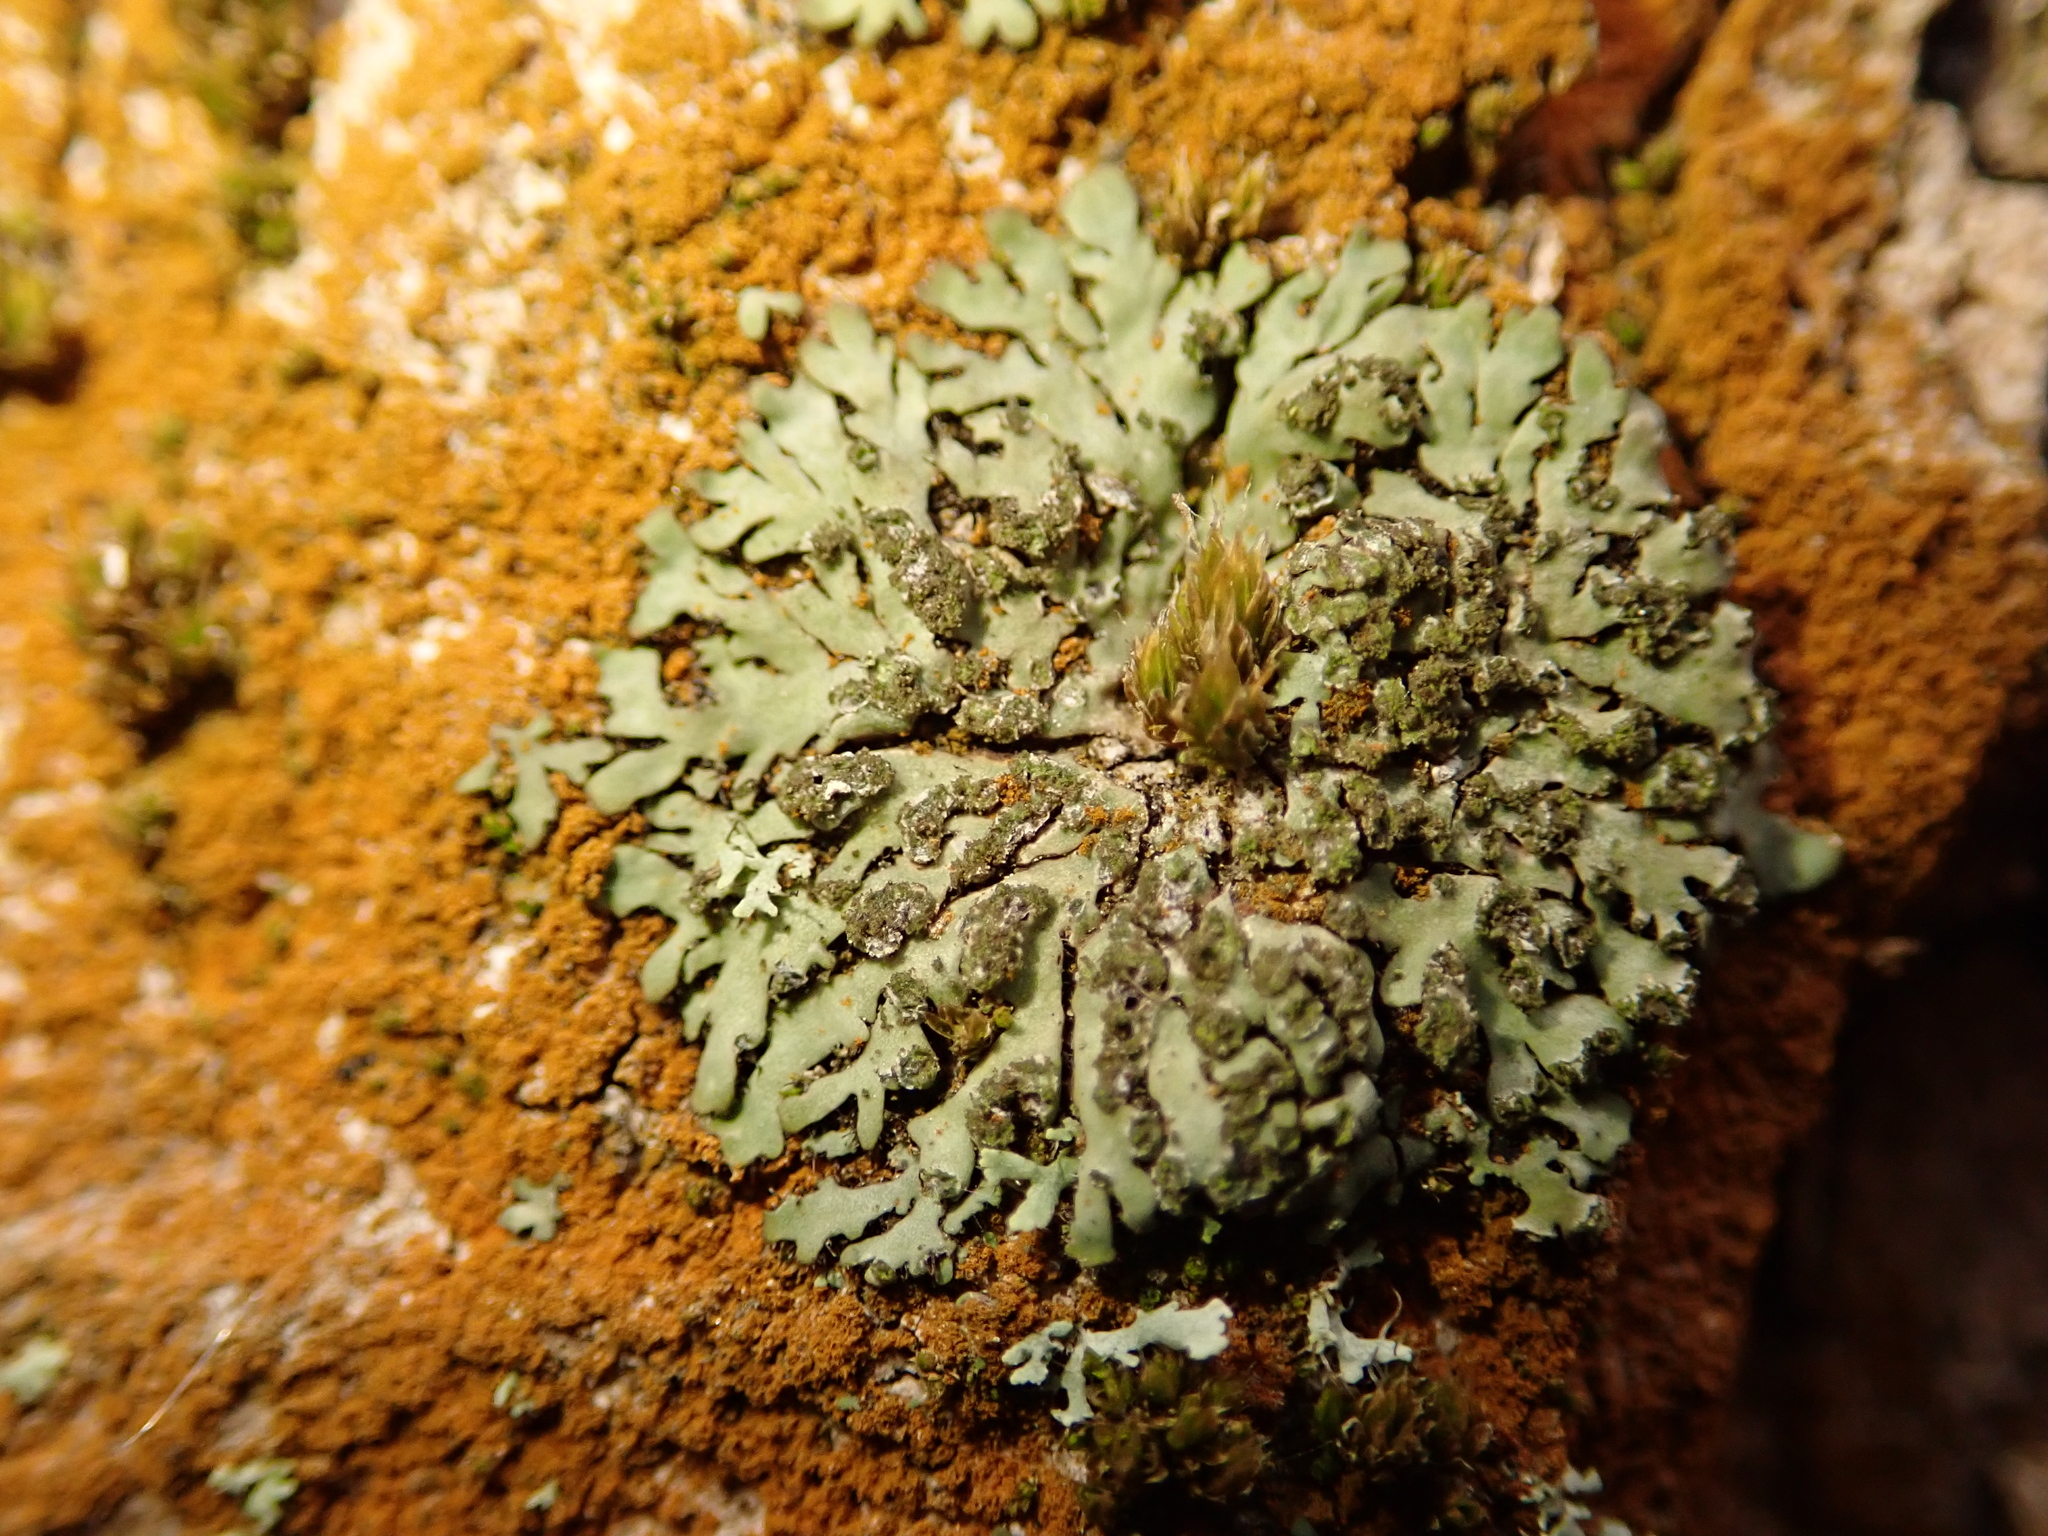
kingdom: Fungi
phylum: Ascomycota
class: Lecanoromycetes
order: Caliciales
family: Physciaceae
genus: Phaeophyscia
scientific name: Phaeophyscia orbicularis
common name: Mealy shadow lichen
